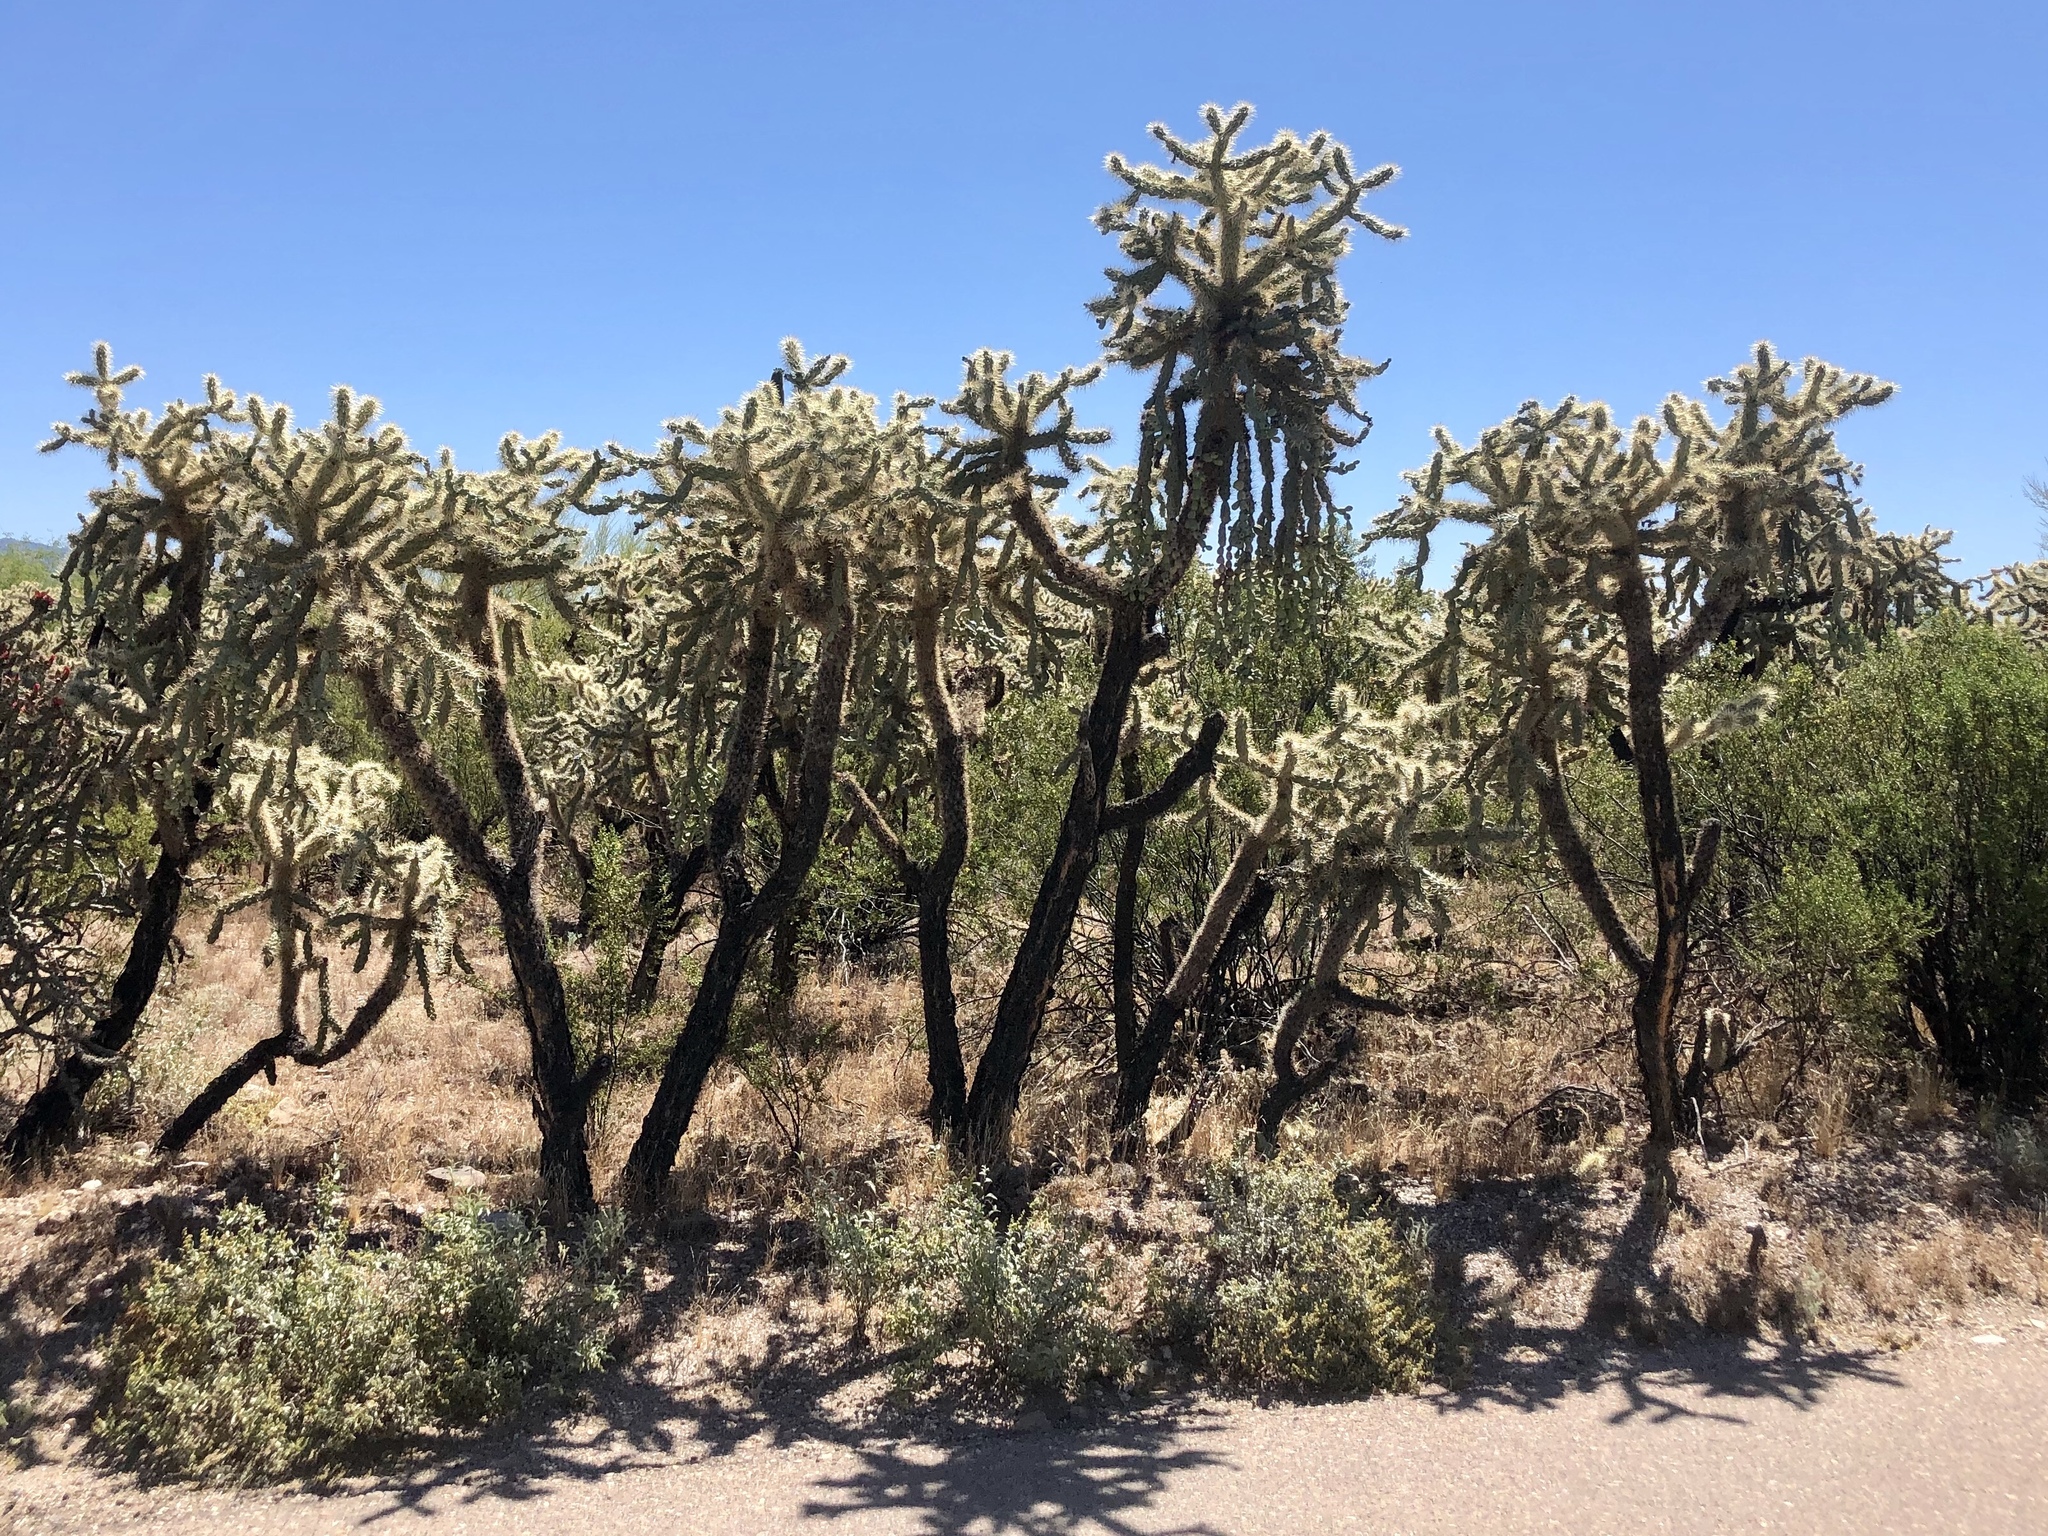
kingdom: Plantae
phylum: Tracheophyta
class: Magnoliopsida
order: Caryophyllales
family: Cactaceae
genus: Cylindropuntia
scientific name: Cylindropuntia fulgida
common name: Jumping cholla
